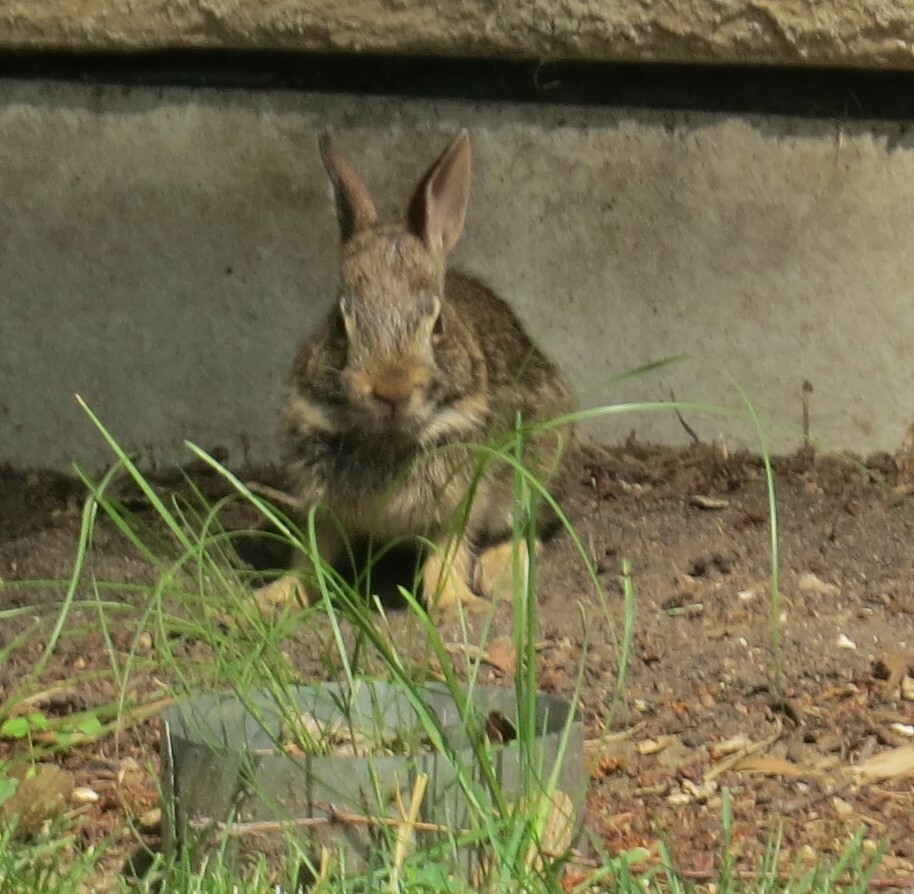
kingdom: Animalia
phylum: Chordata
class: Mammalia
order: Lagomorpha
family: Leporidae
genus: Sylvilagus
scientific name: Sylvilagus floridanus
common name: Eastern cottontail
